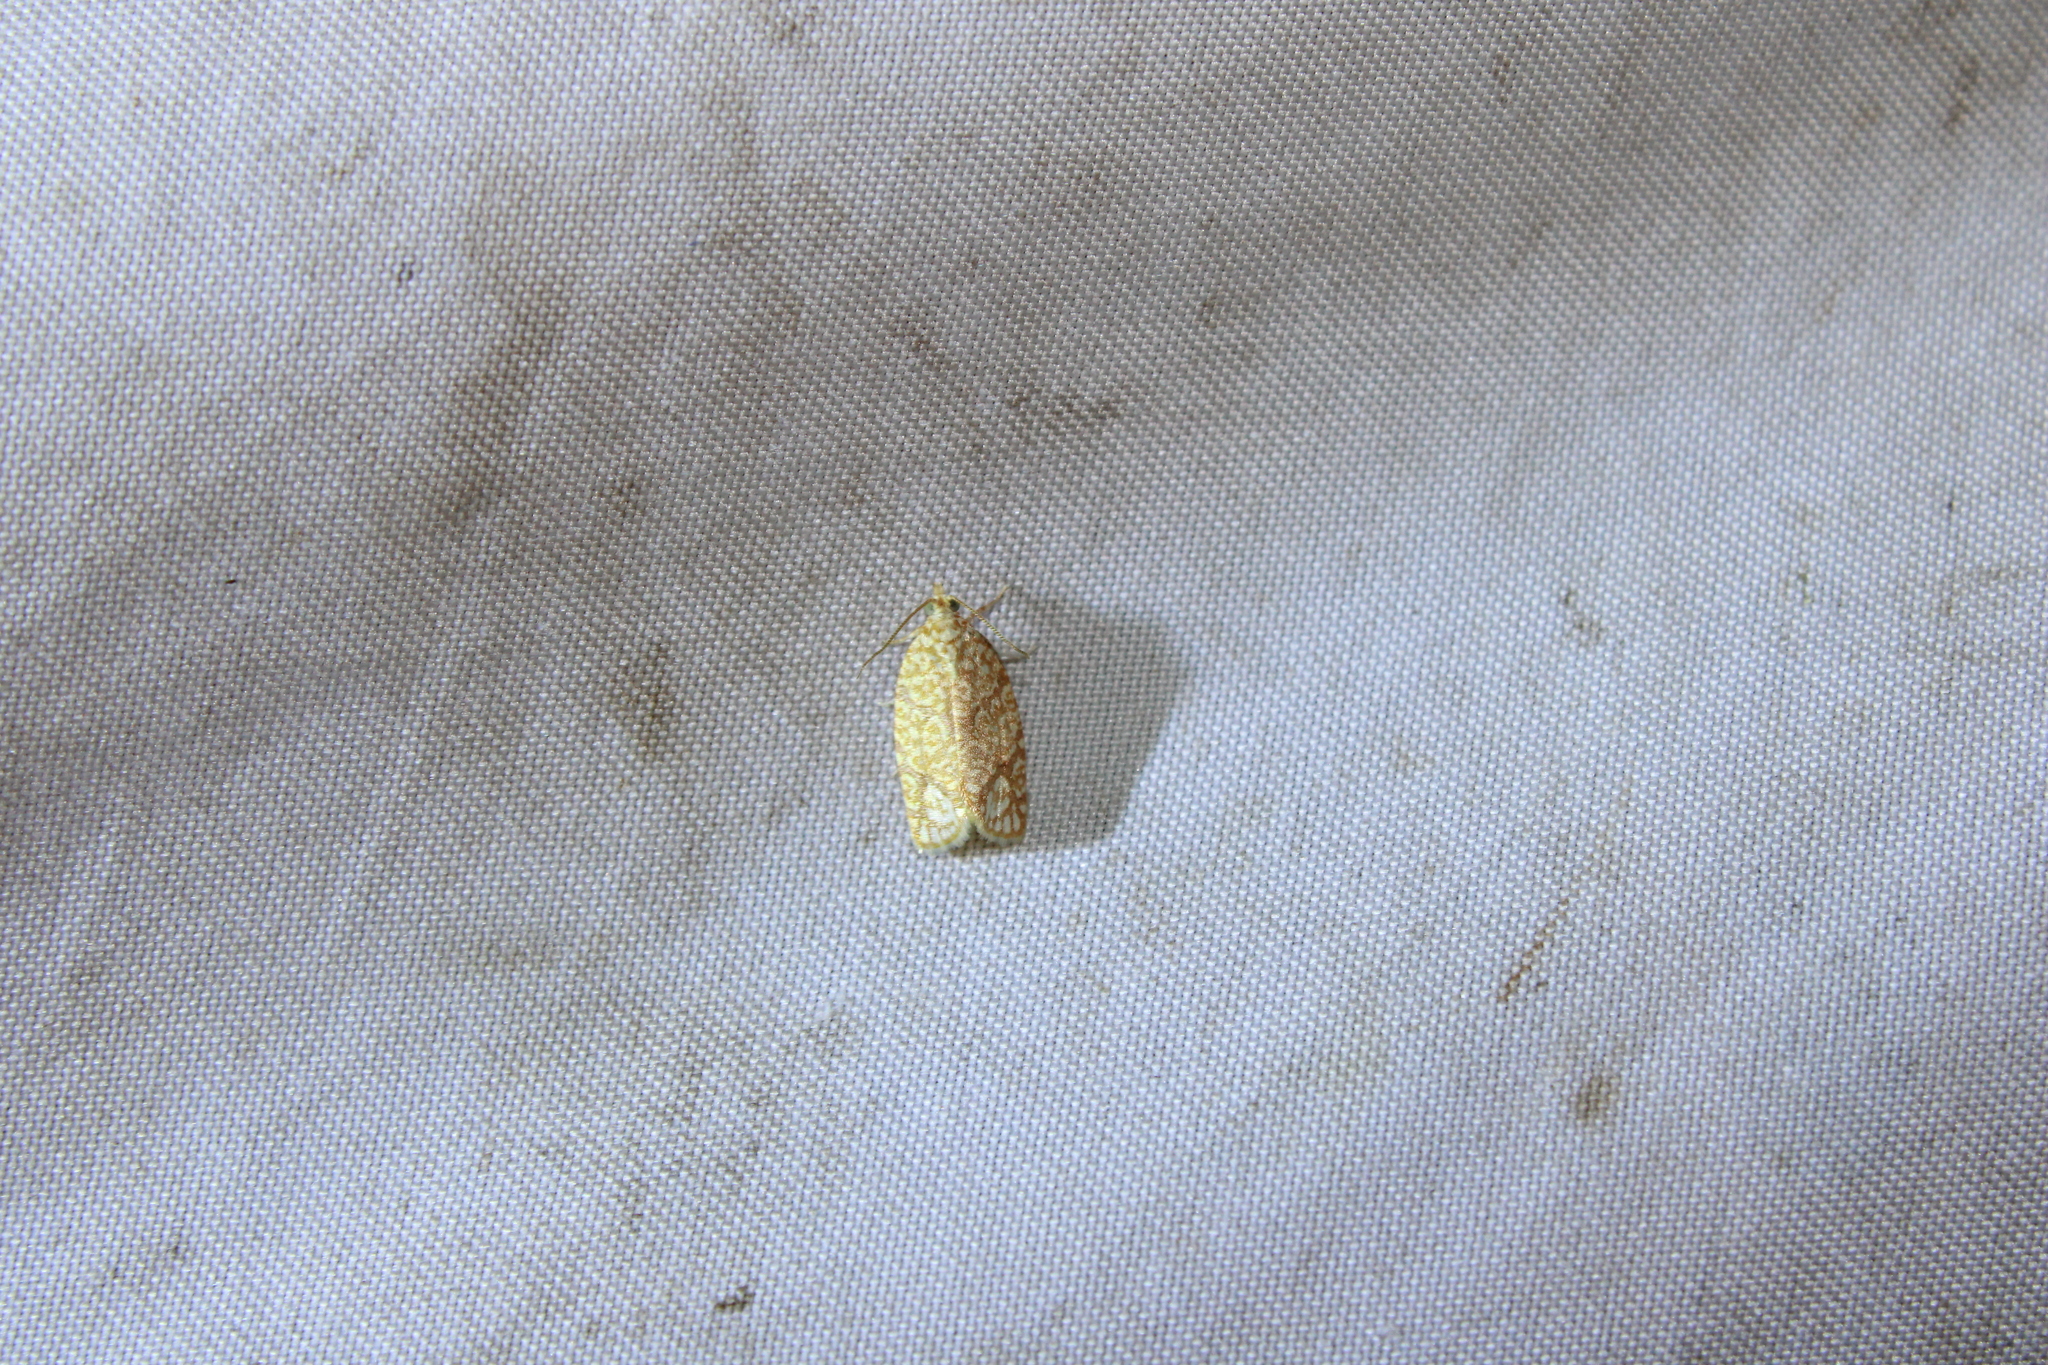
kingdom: Animalia
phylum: Arthropoda
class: Insecta
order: Lepidoptera
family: Tortricidae
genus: Argyrotaenia
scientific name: Argyrotaenia quercifoliana
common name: Yellow-winged oak leafroller moth
